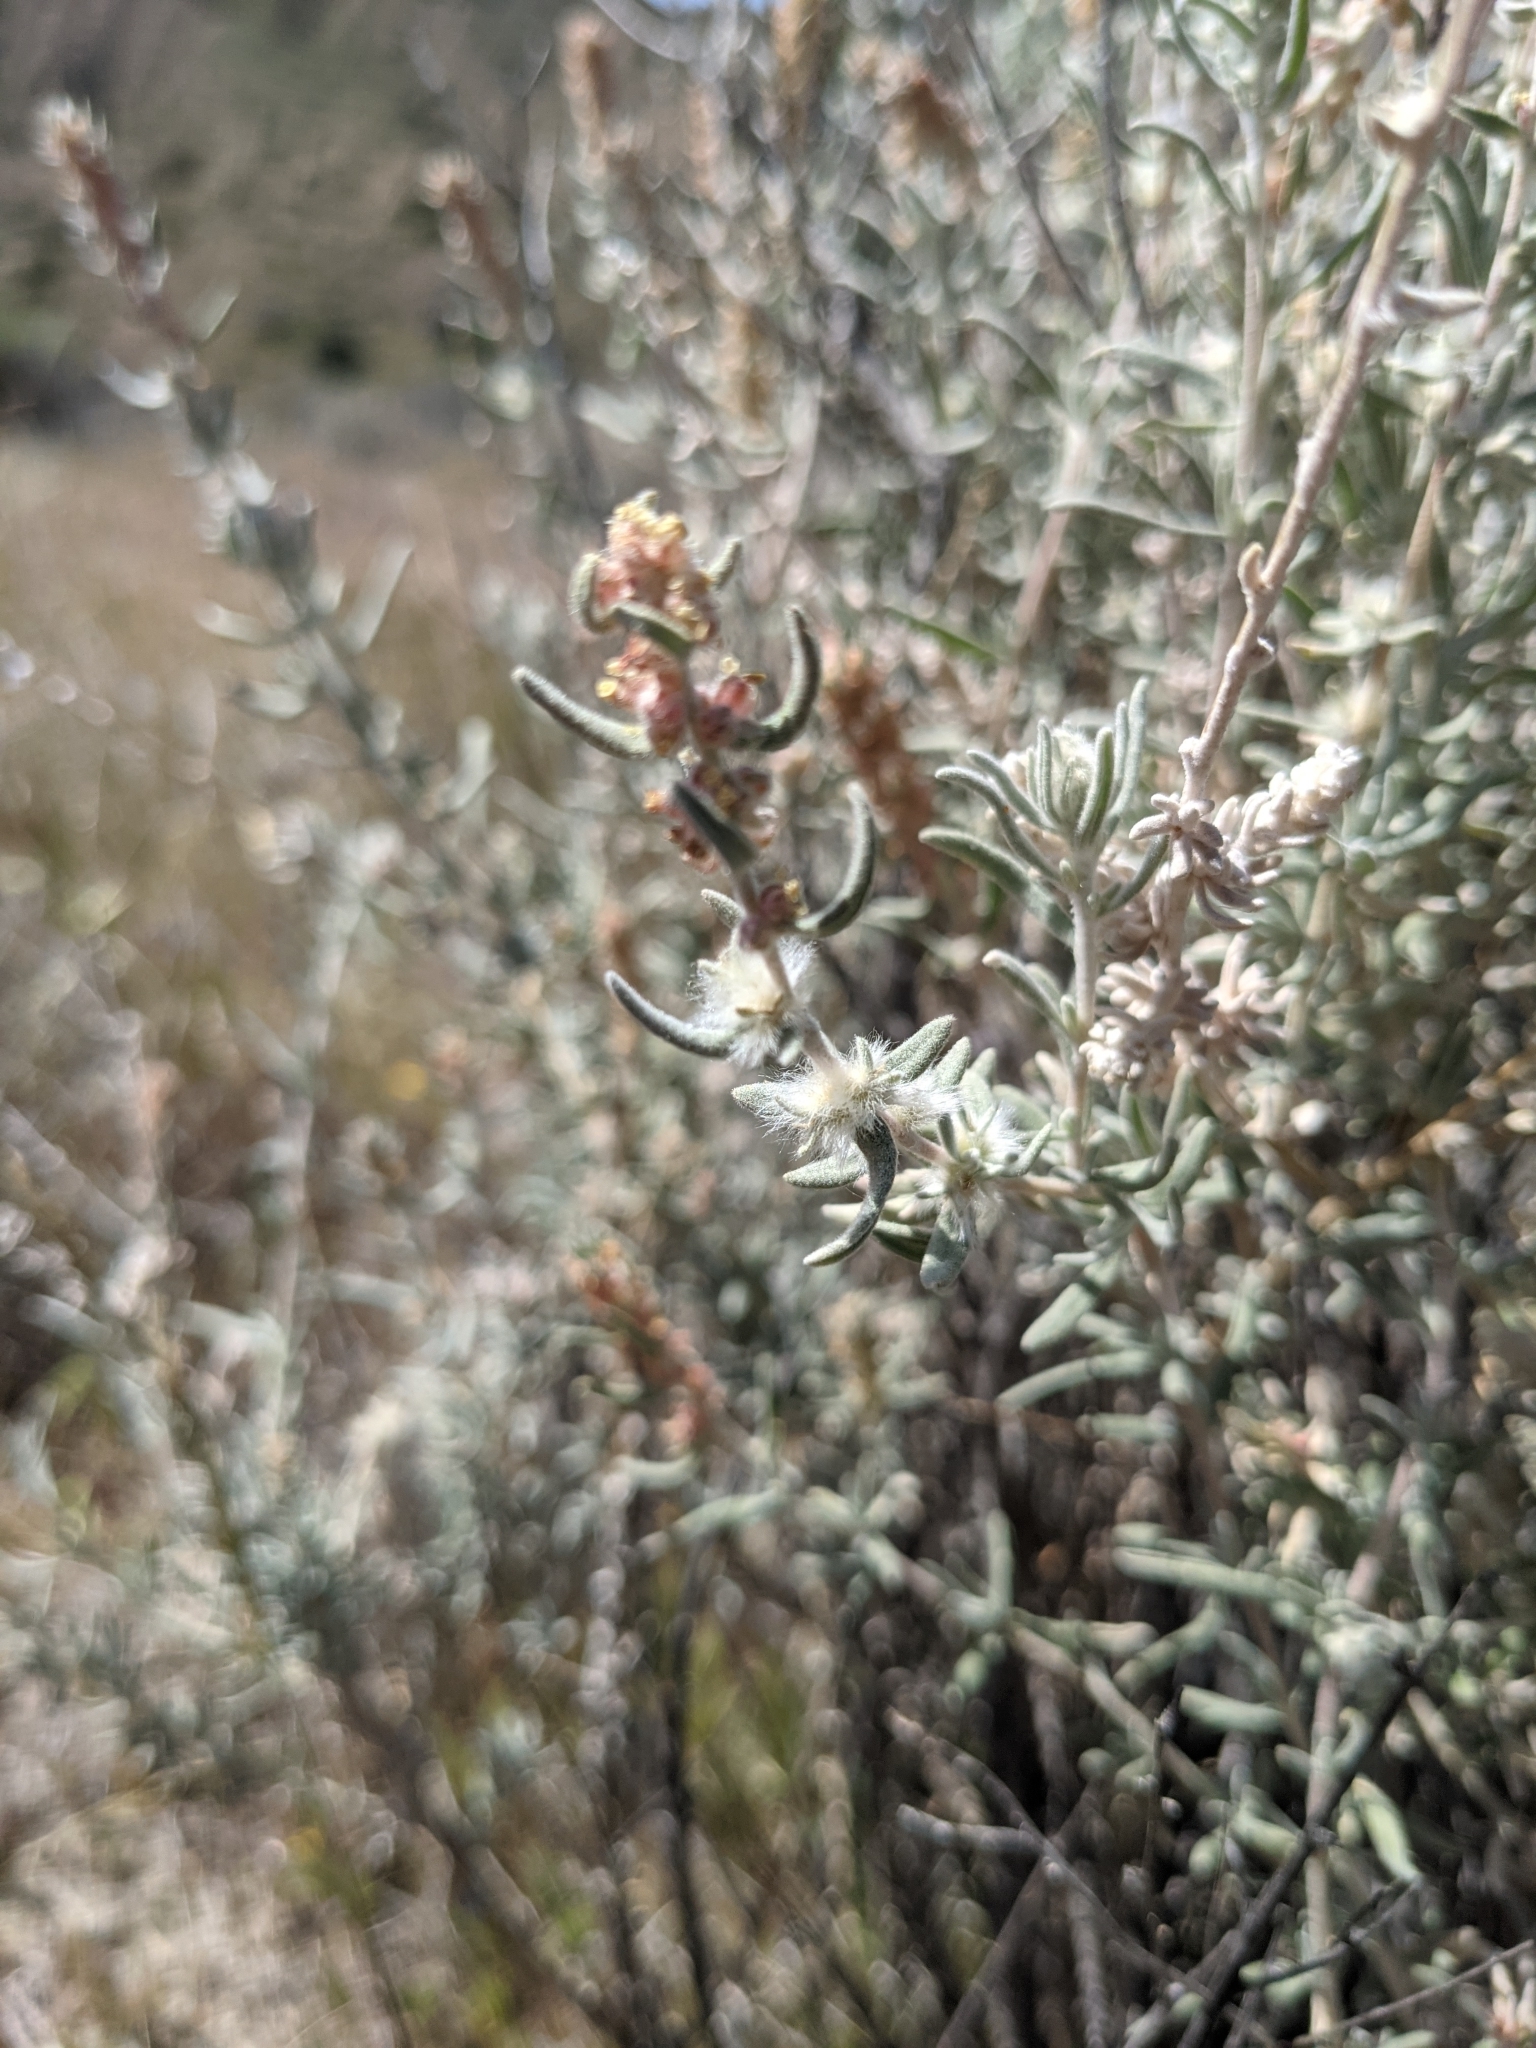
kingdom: Plantae
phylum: Tracheophyta
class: Magnoliopsida
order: Caryophyllales
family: Amaranthaceae
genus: Krascheninnikovia
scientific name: Krascheninnikovia lanata
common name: Winterfat
